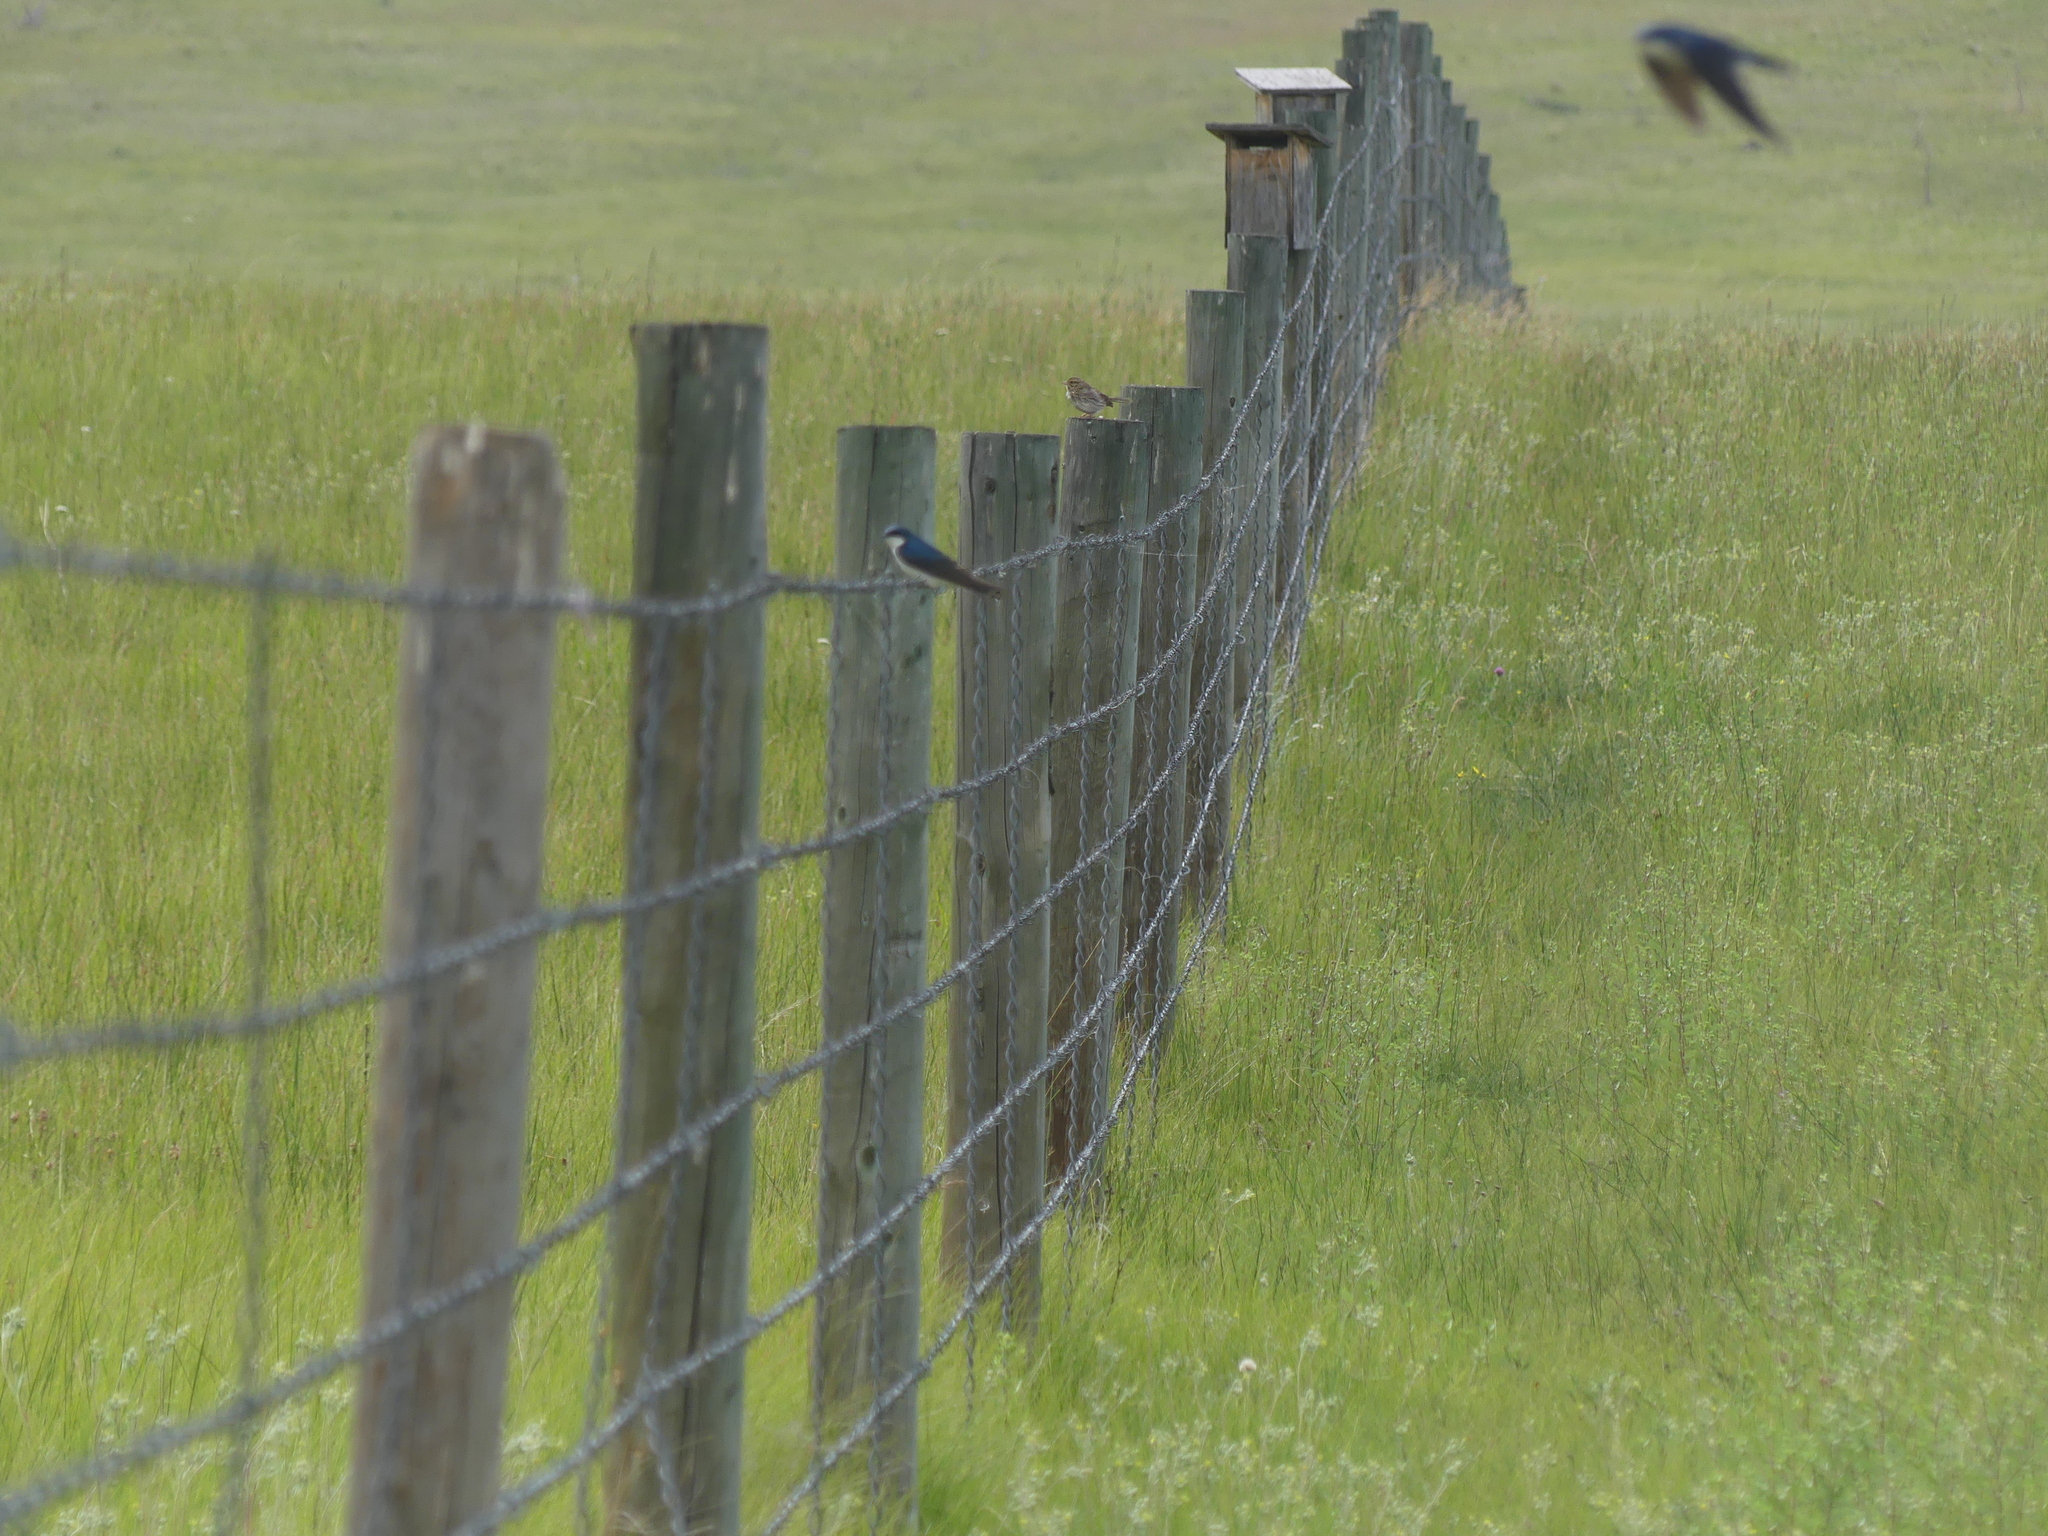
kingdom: Animalia
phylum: Chordata
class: Aves
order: Passeriformes
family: Hirundinidae
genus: Tachycineta
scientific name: Tachycineta bicolor
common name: Tree swallow
